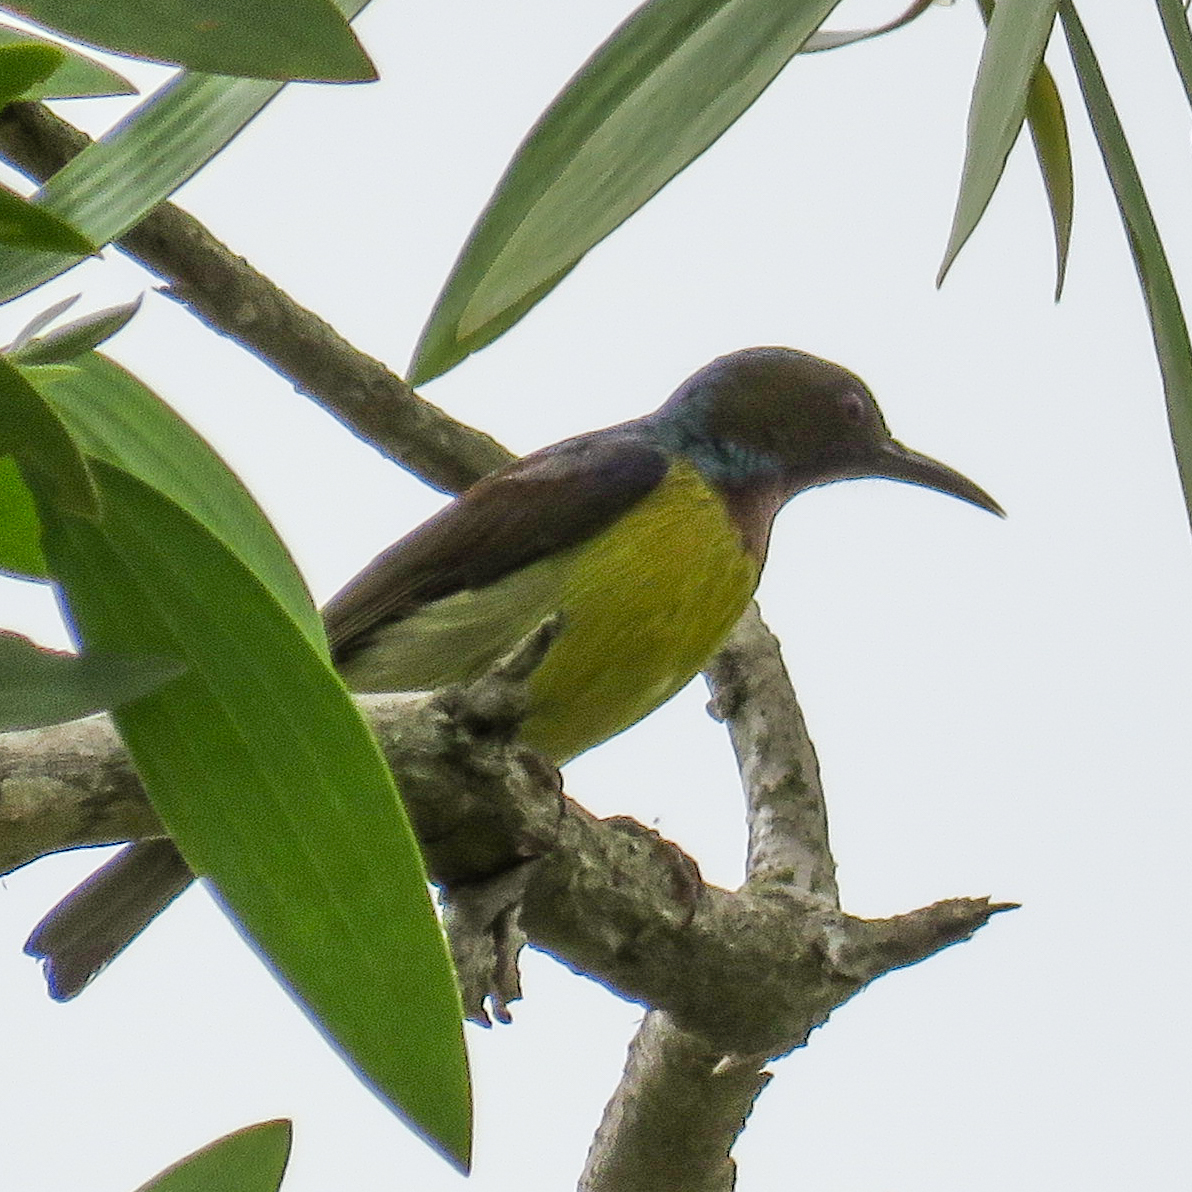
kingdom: Animalia
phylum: Chordata
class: Aves
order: Passeriformes
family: Nectariniidae
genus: Anthreptes
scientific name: Anthreptes malacensis
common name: Brown-throated sunbird
